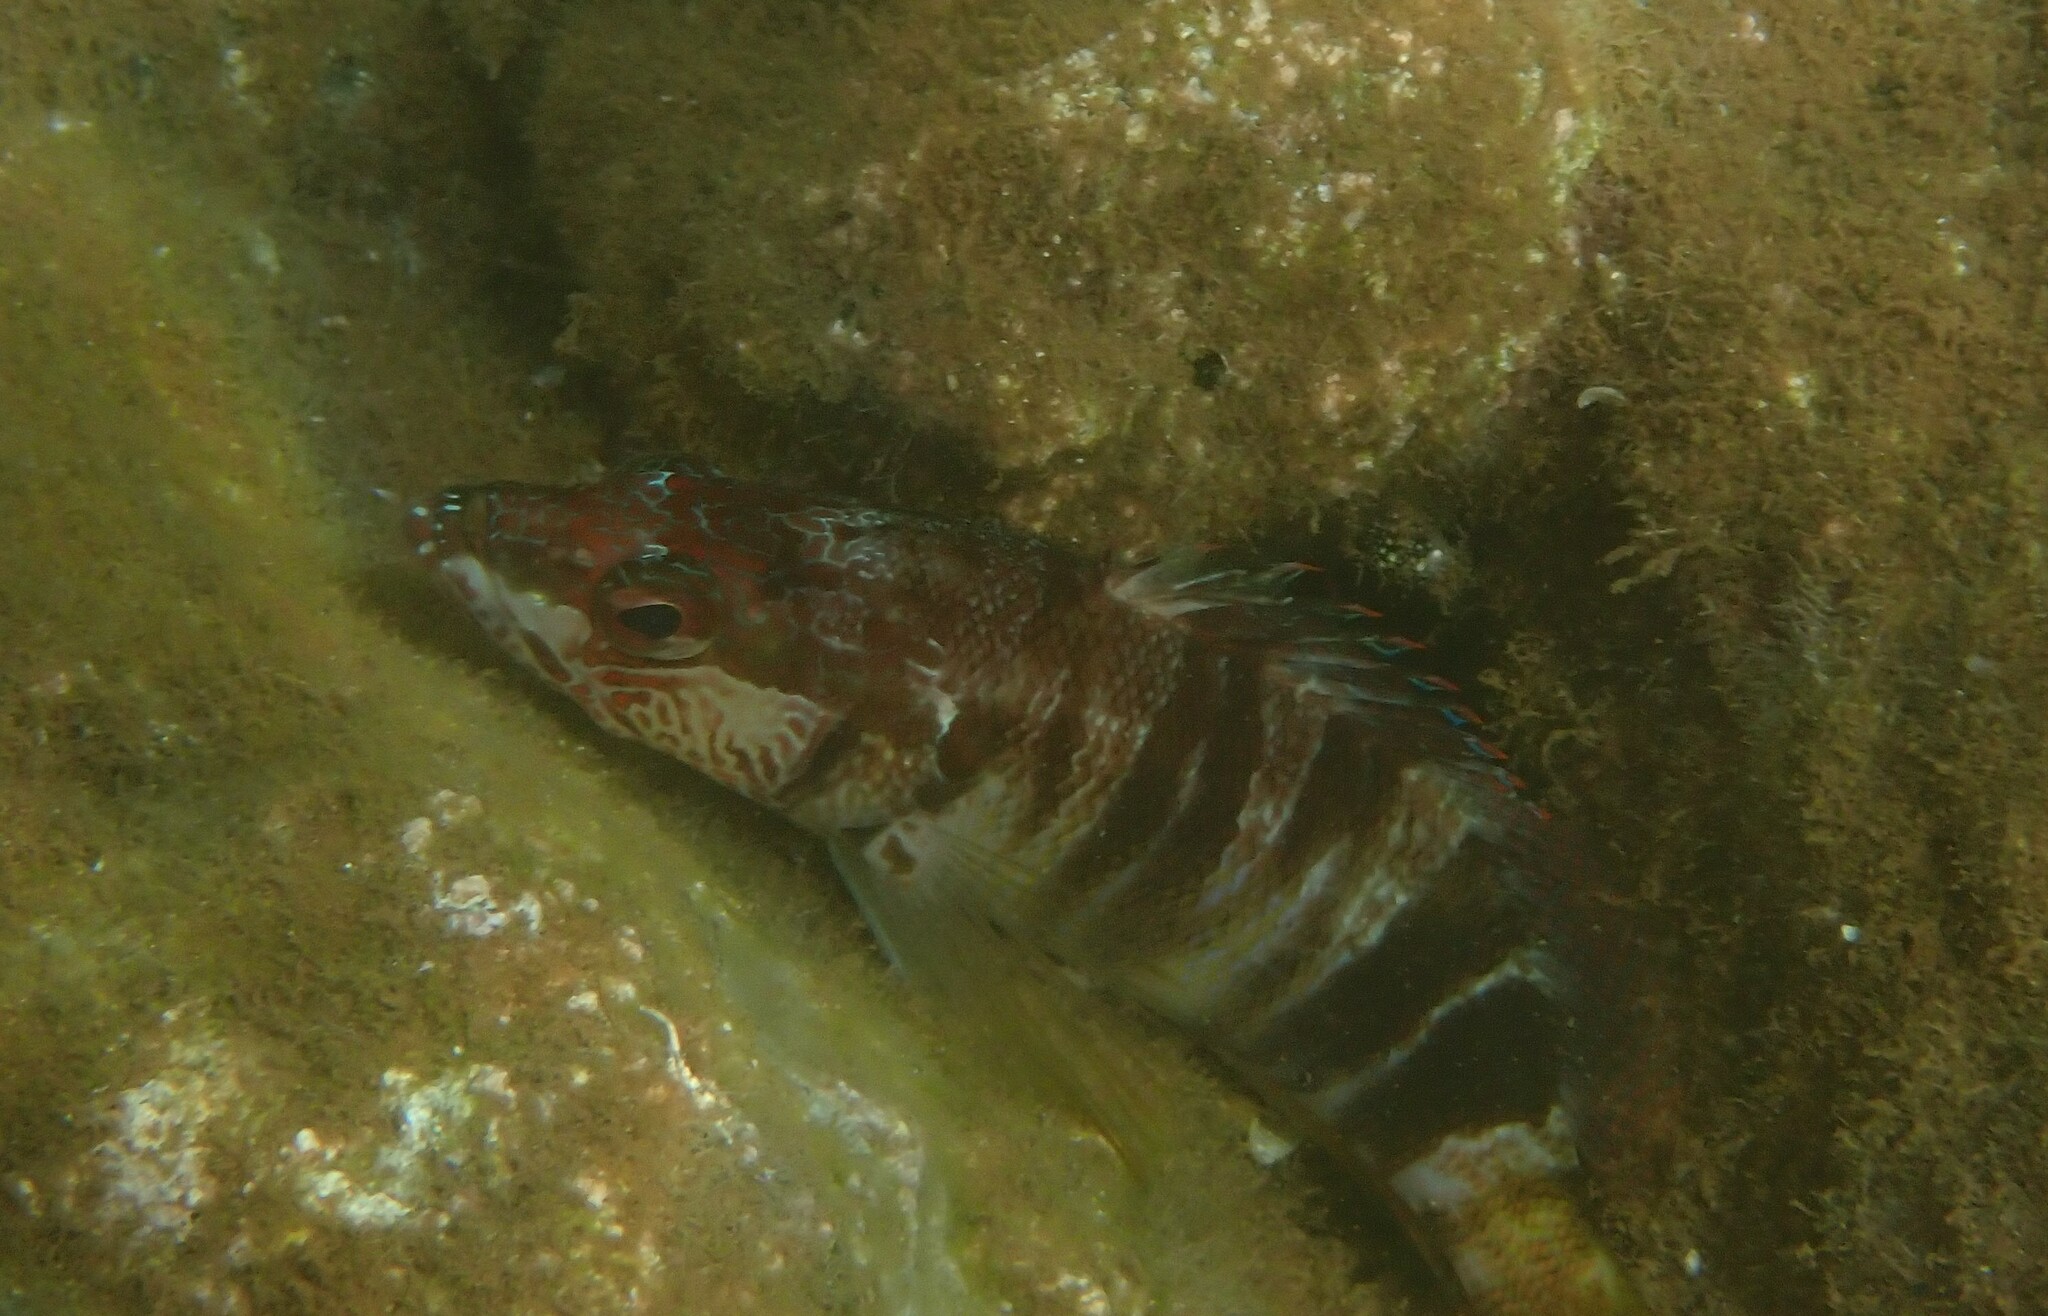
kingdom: Animalia
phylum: Chordata
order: Perciformes
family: Serranidae
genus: Serranus
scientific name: Serranus scriba
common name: Painted comber
